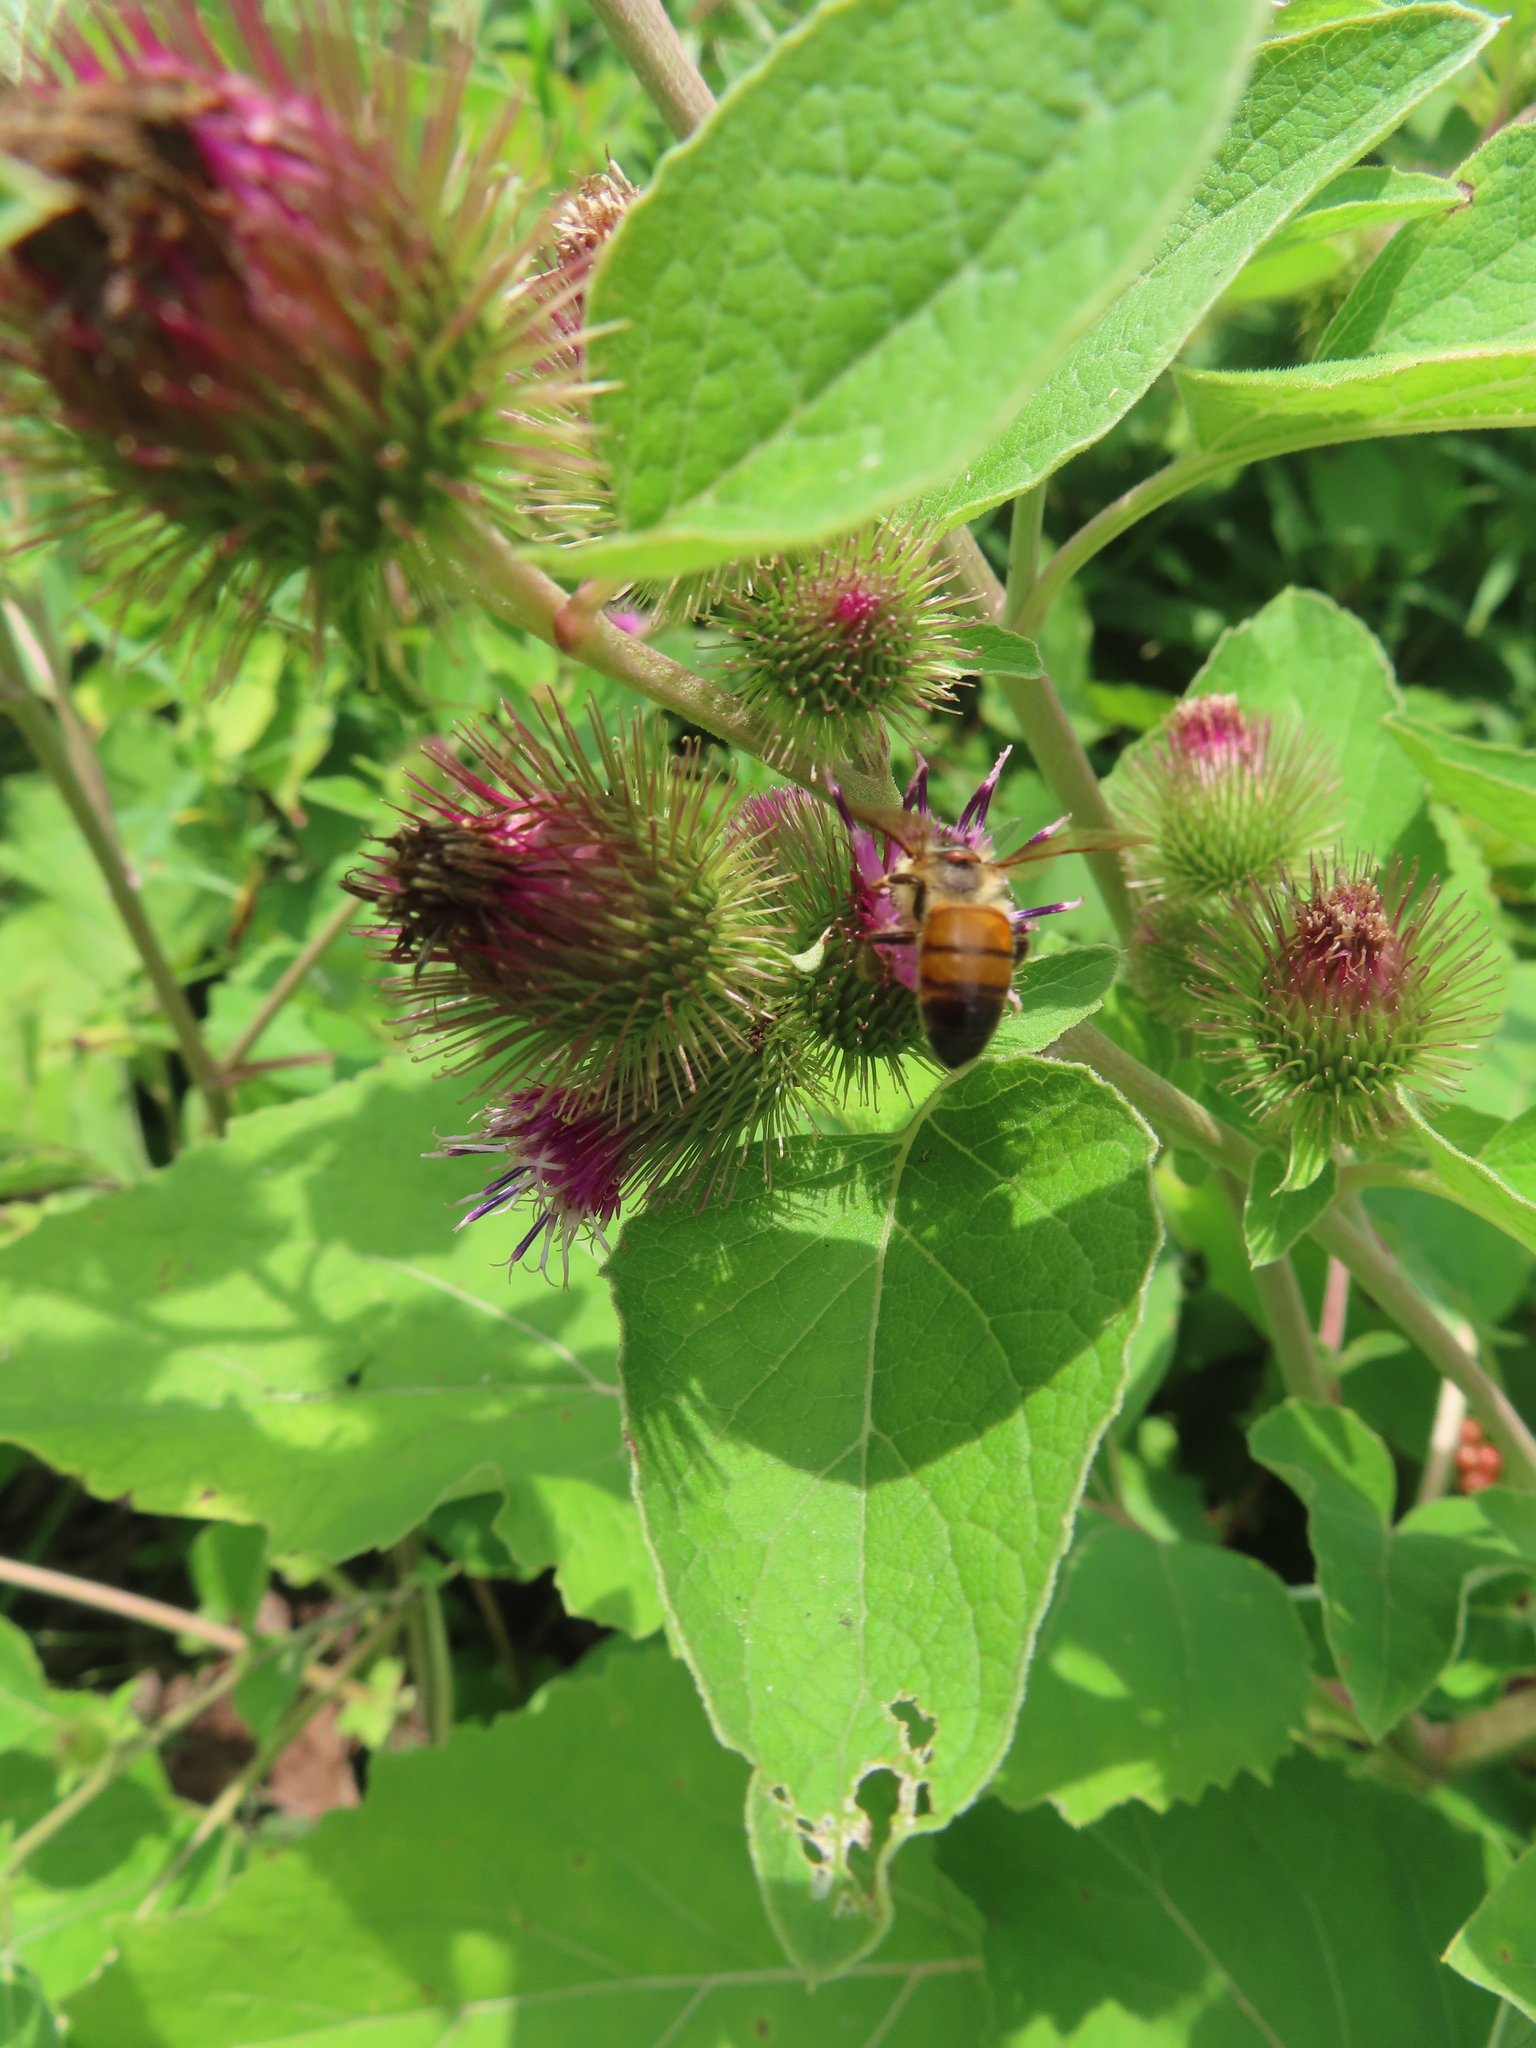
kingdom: Animalia
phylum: Arthropoda
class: Insecta
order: Hymenoptera
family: Apidae
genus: Apis
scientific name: Apis mellifera
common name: Honey bee
